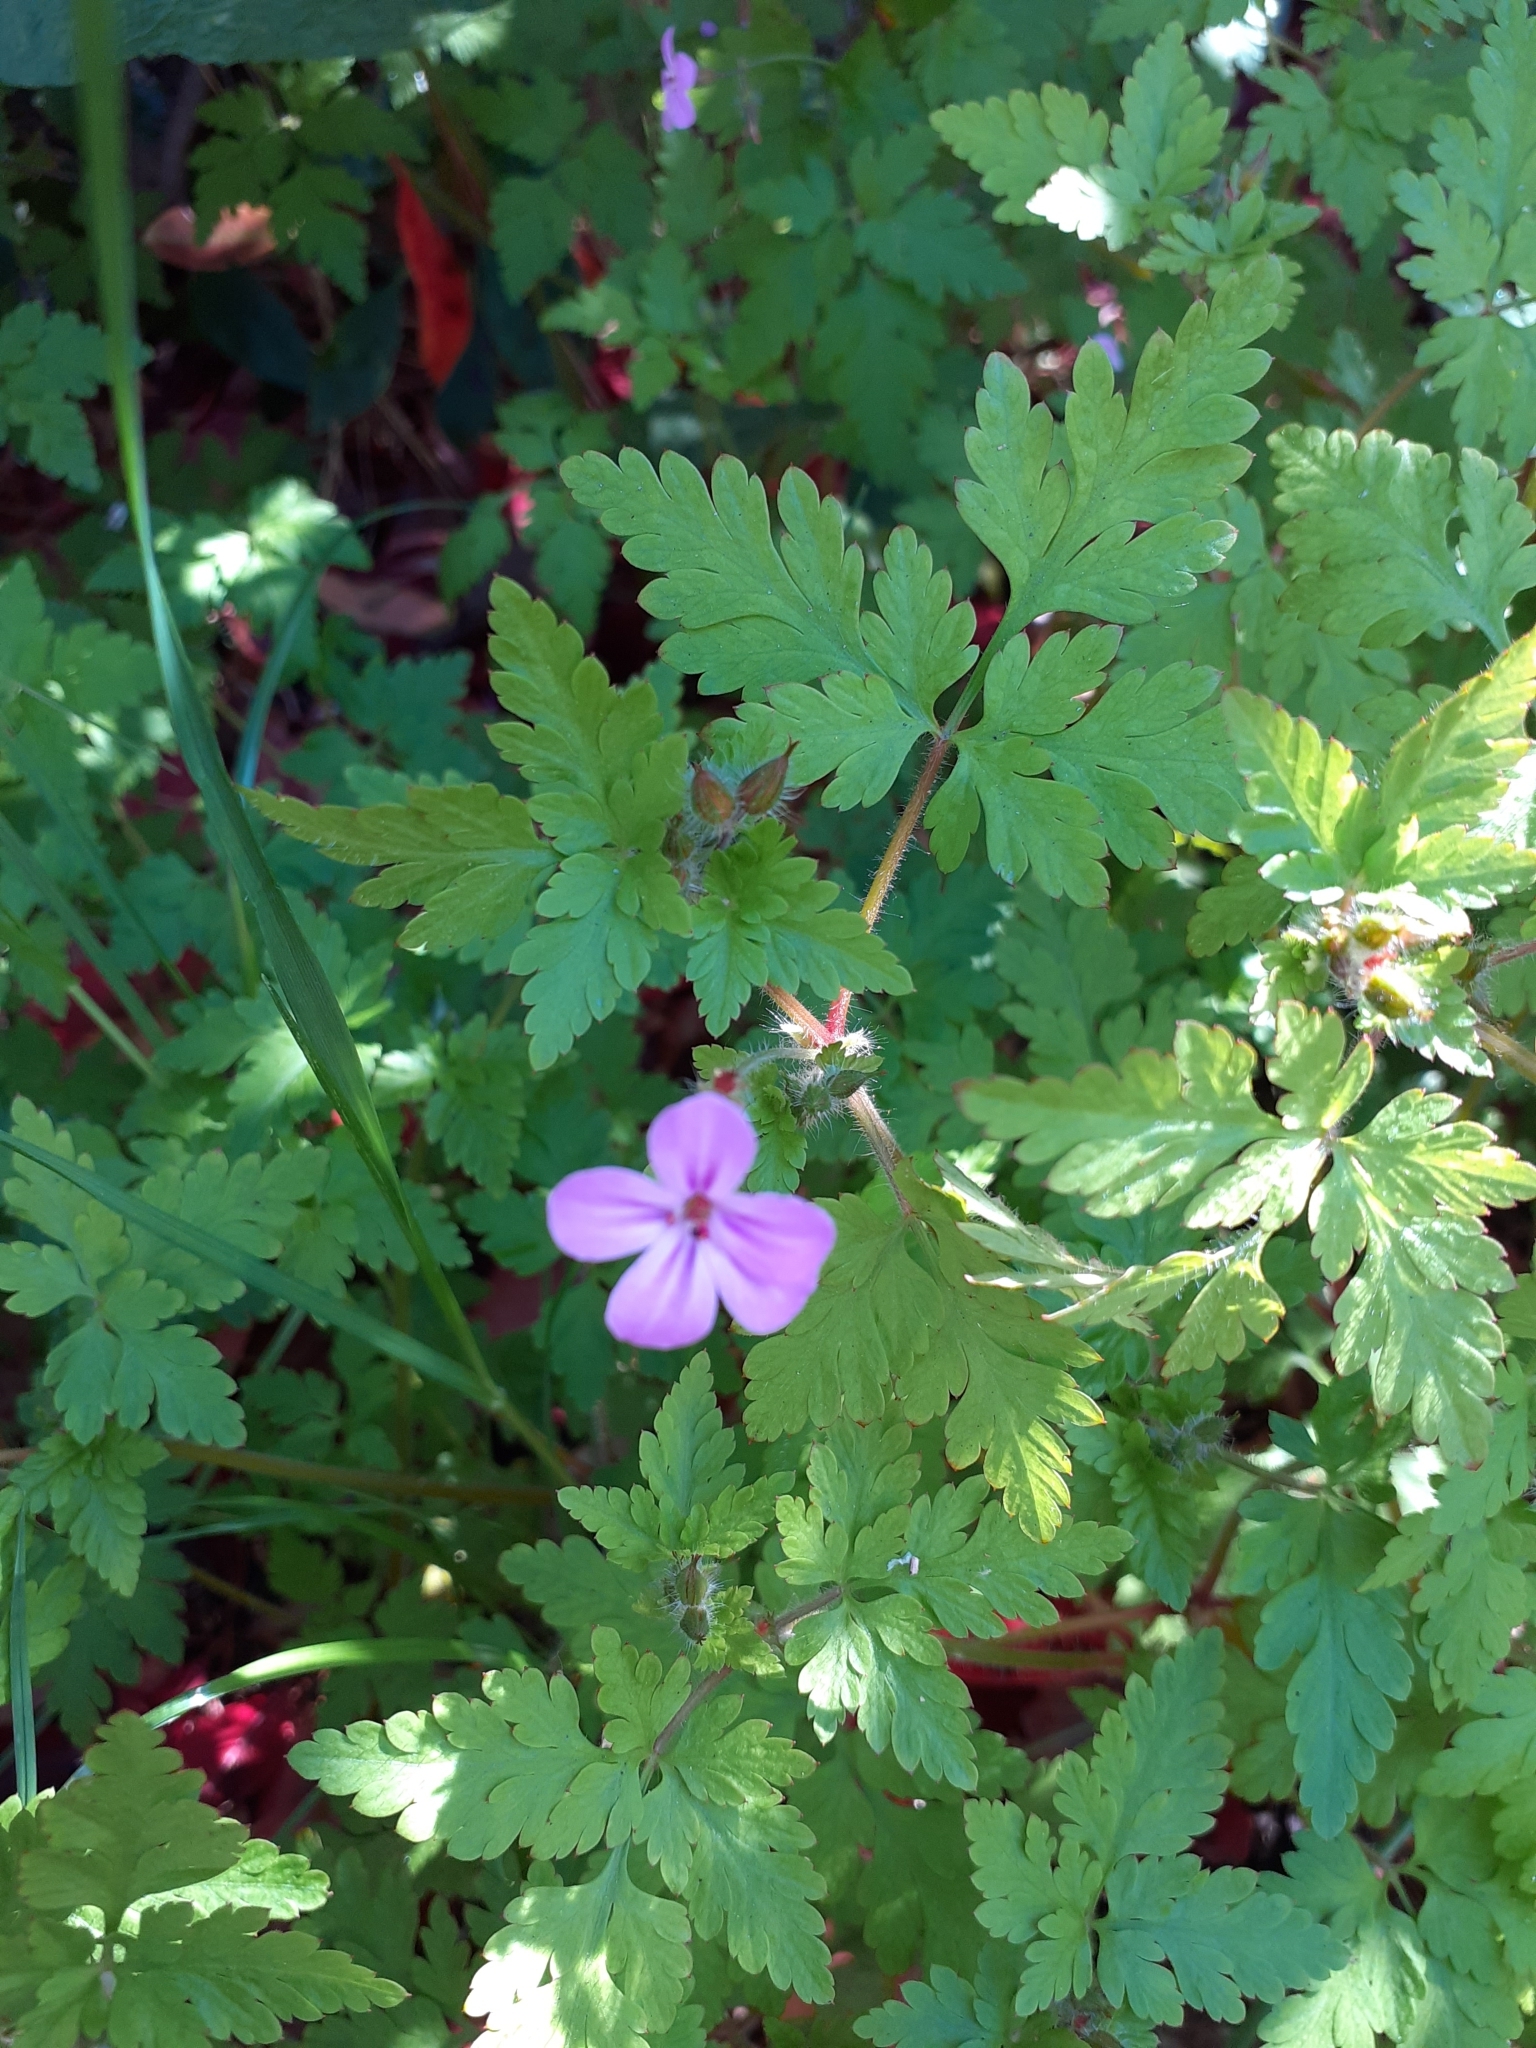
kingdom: Plantae
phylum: Tracheophyta
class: Magnoliopsida
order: Geraniales
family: Geraniaceae
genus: Geranium
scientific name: Geranium robertianum
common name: Herb-robert
